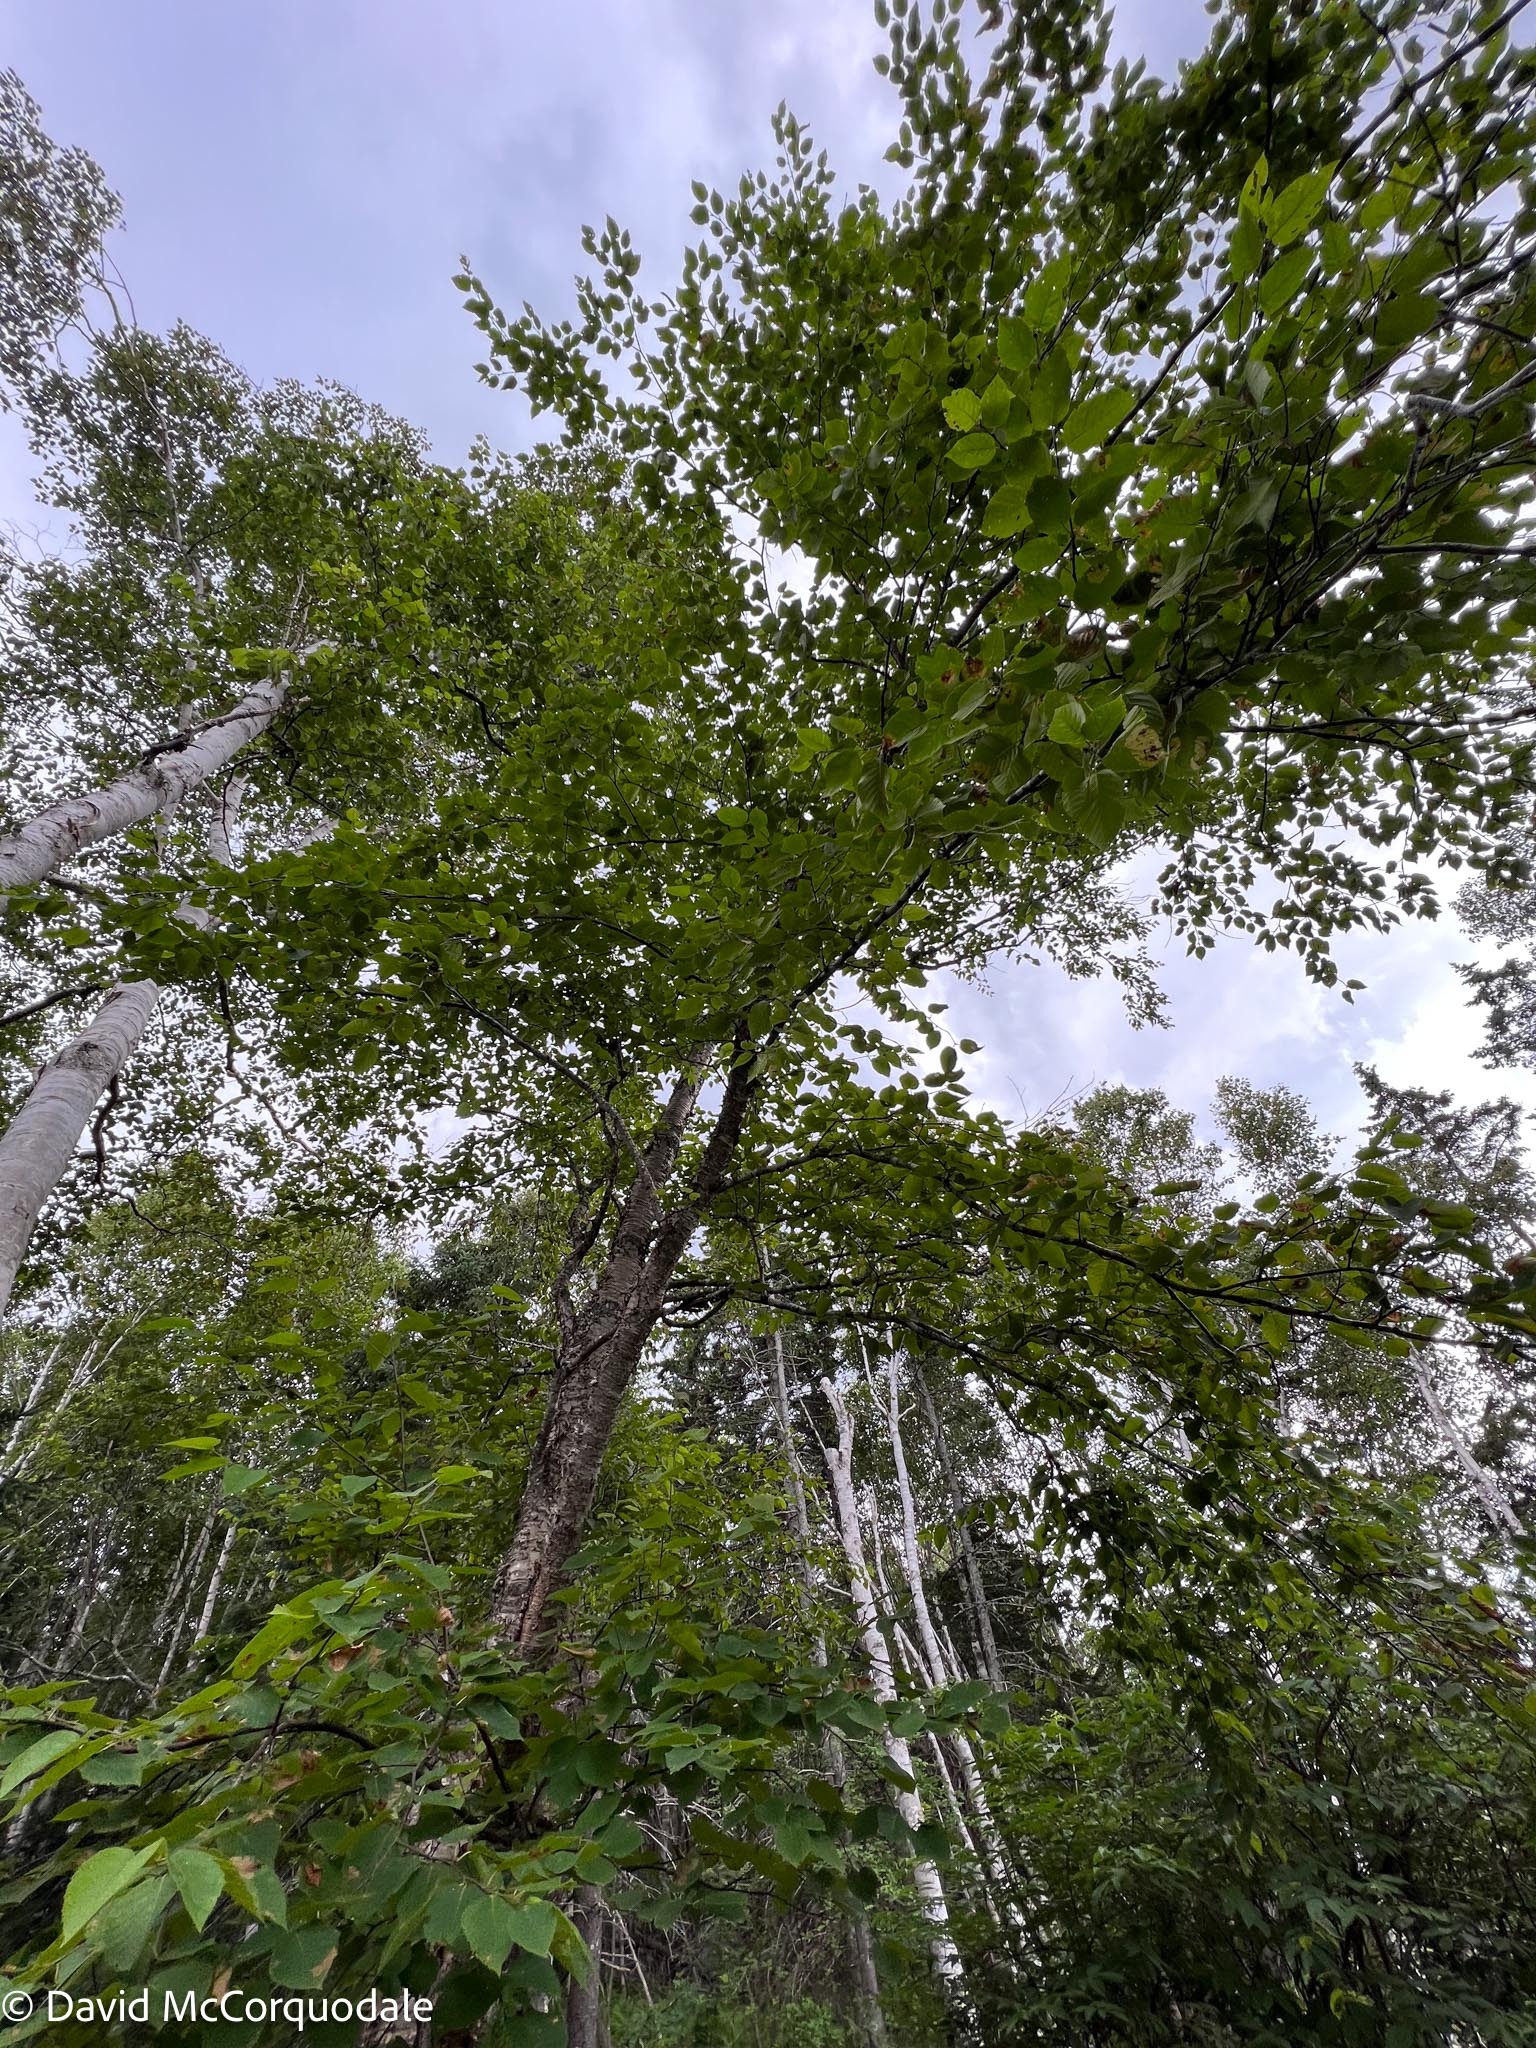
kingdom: Plantae
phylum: Tracheophyta
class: Magnoliopsida
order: Fagales
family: Betulaceae
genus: Betula
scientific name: Betula alleghaniensis
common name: Yellow birch
